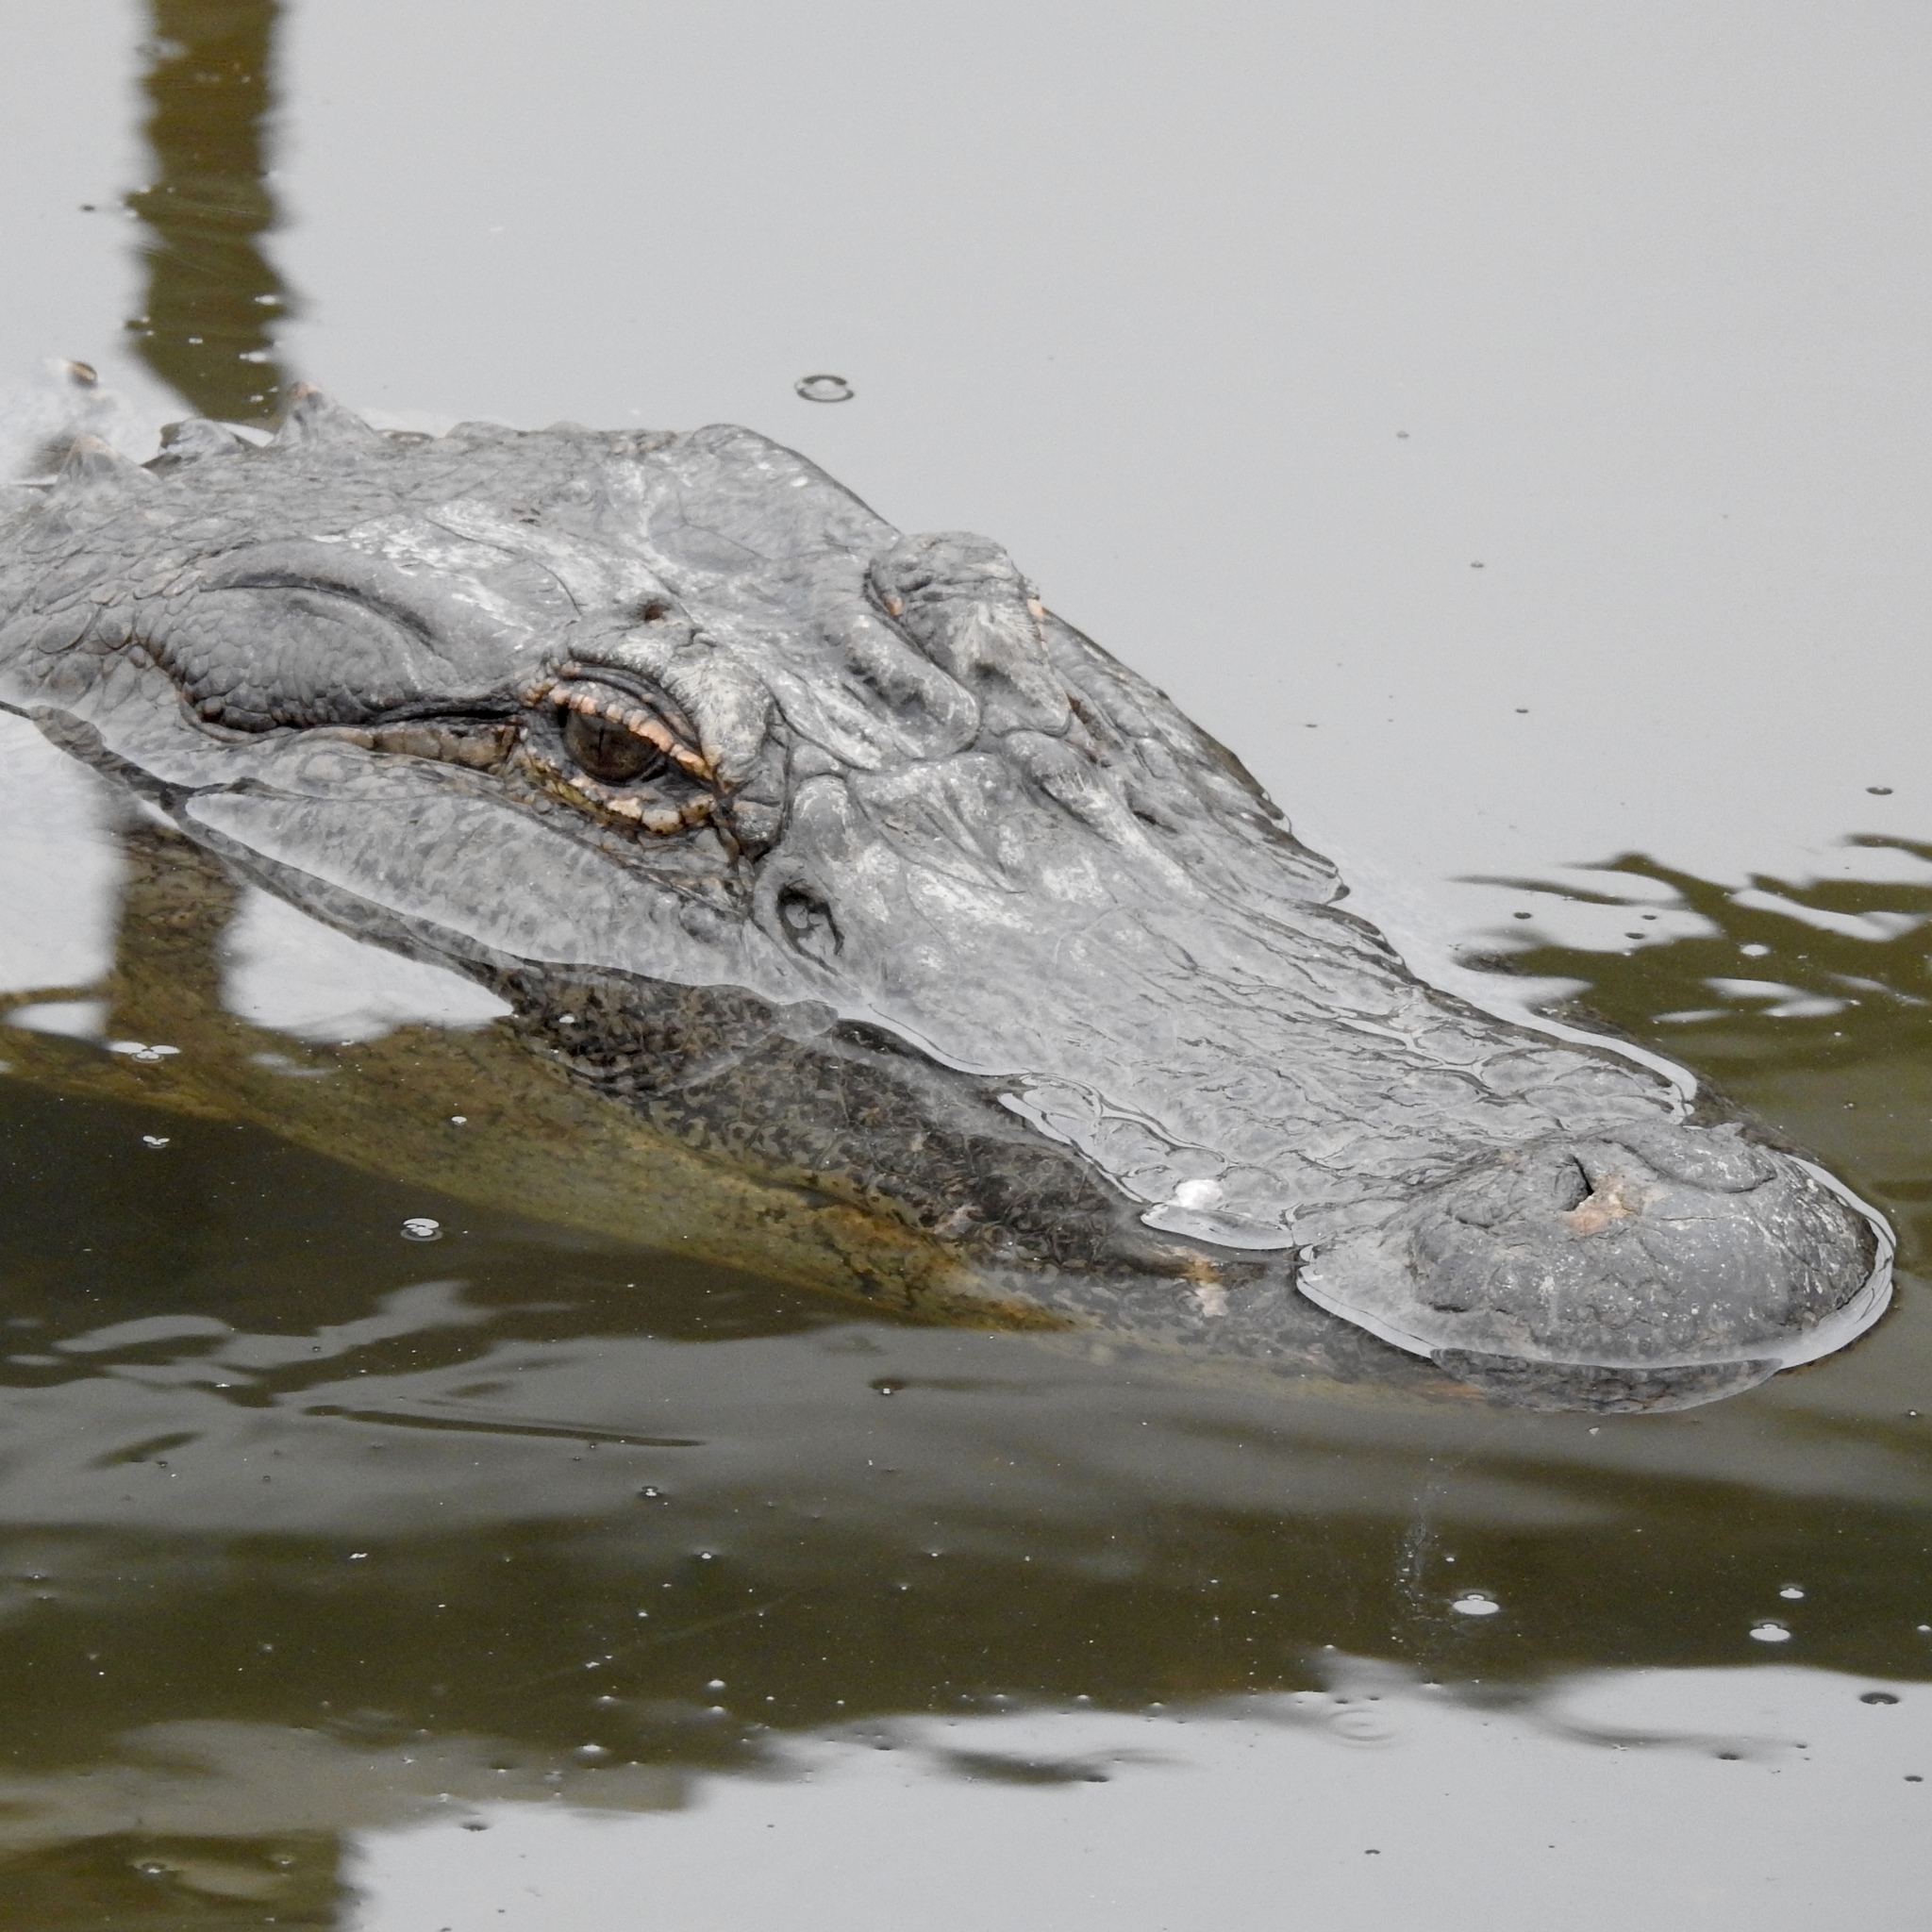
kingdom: Animalia
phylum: Chordata
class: Crocodylia
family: Alligatoridae
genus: Alligator
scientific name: Alligator mississippiensis
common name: American alligator
